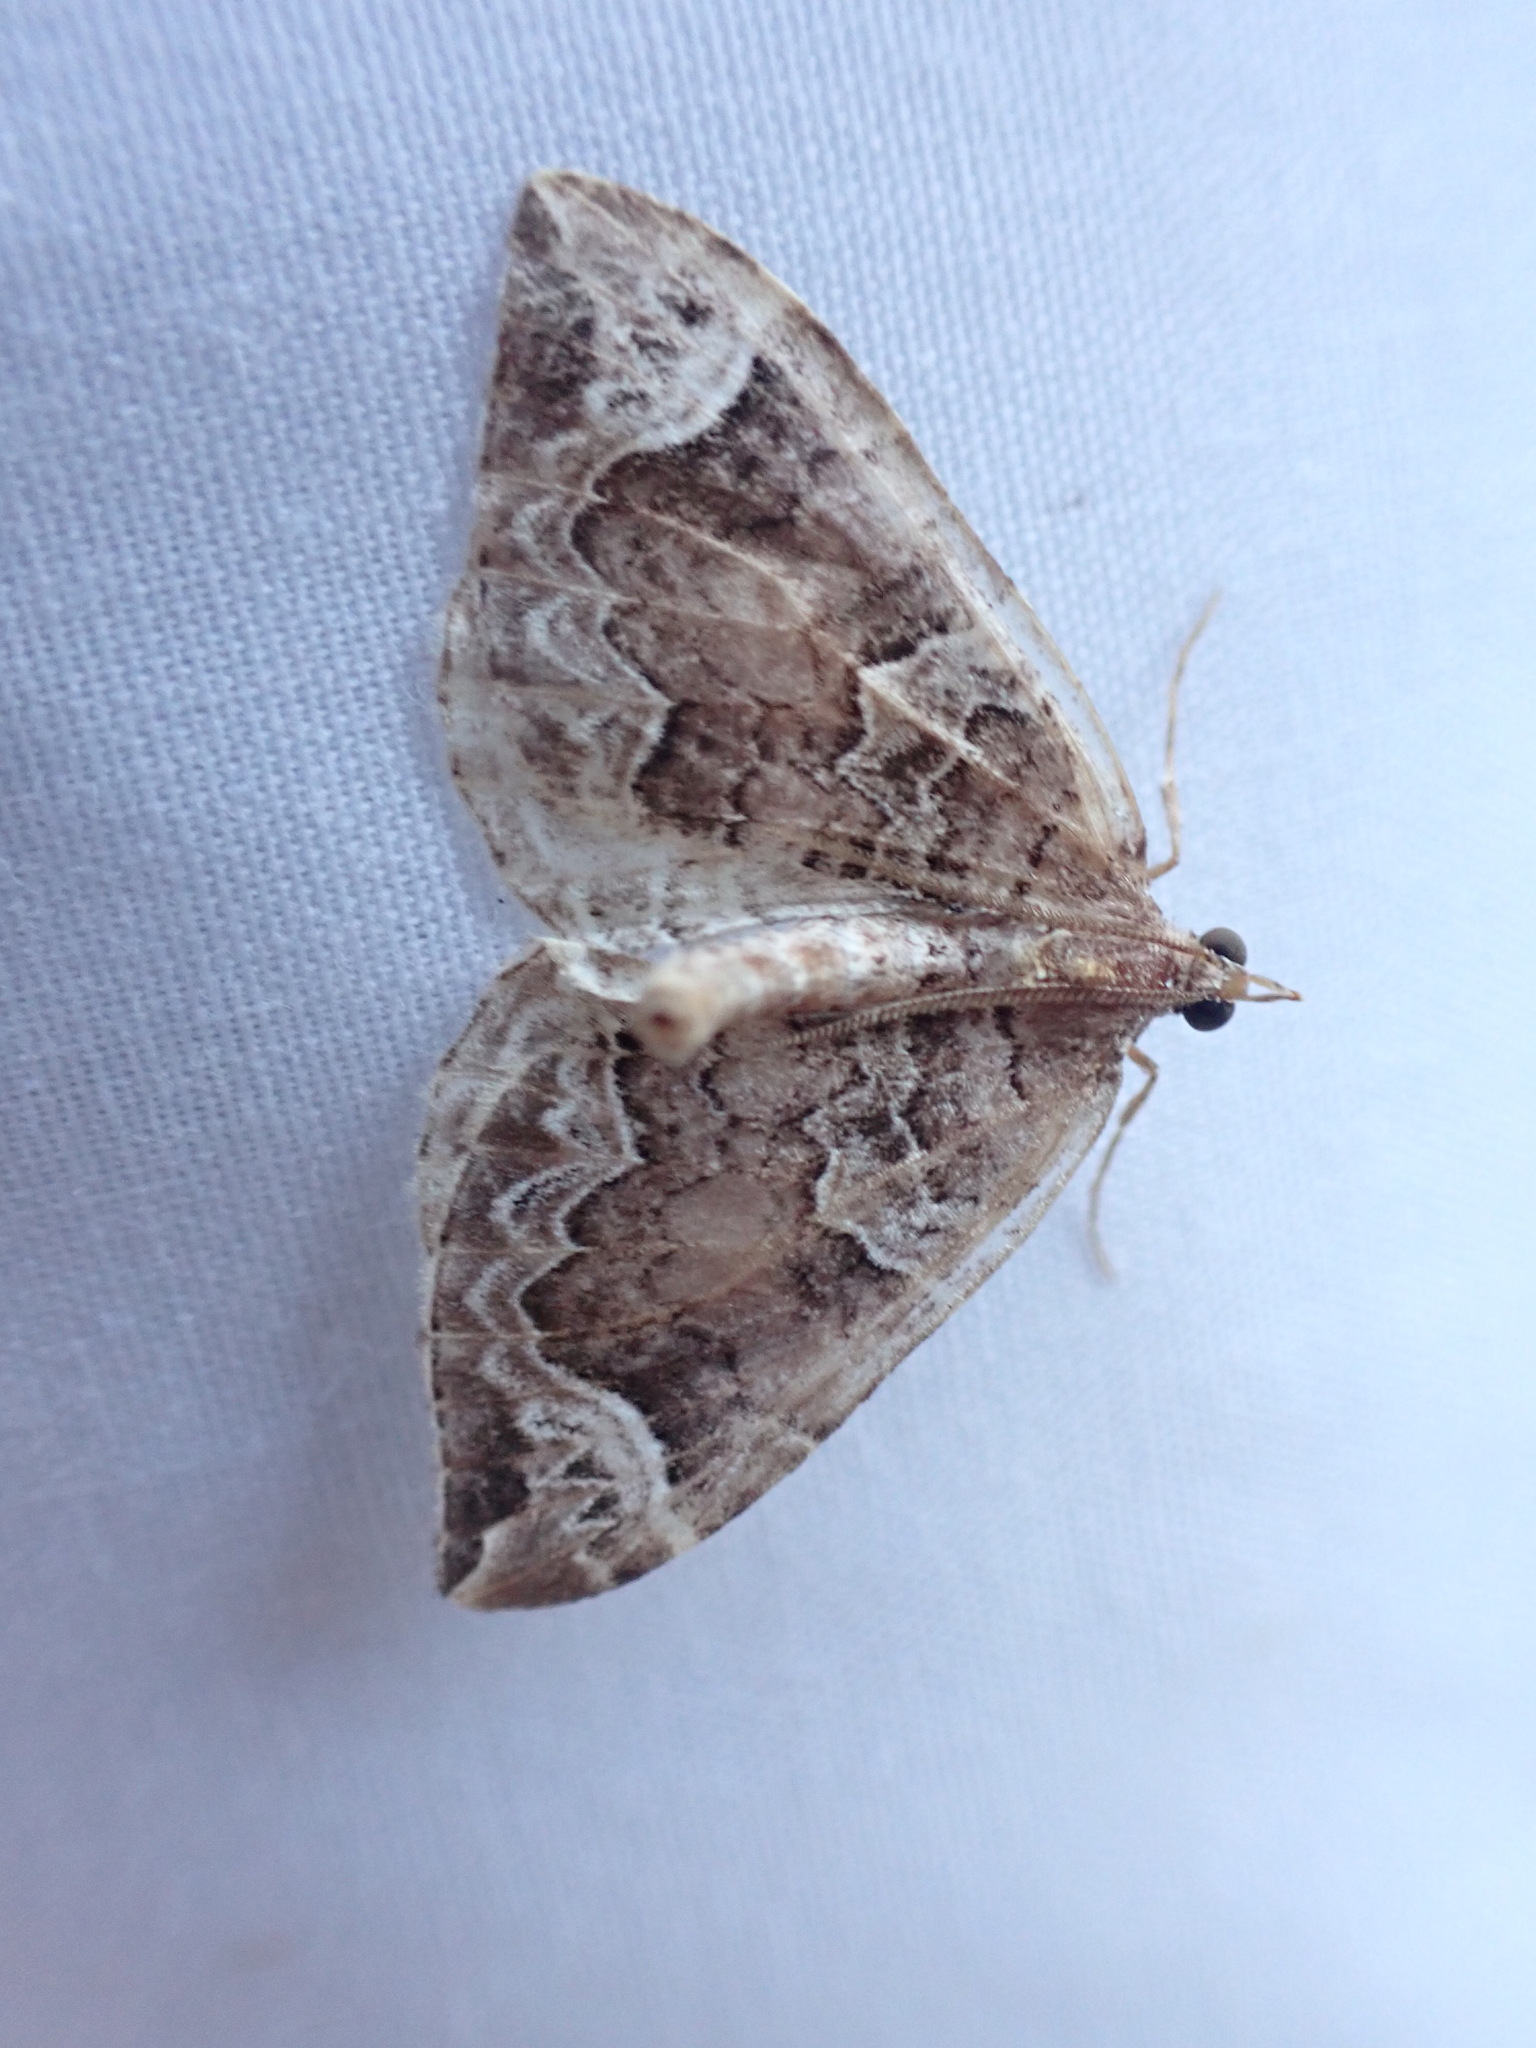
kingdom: Animalia
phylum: Arthropoda
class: Insecta
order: Lepidoptera
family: Geometridae
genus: Eulithis
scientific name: Eulithis xylina
